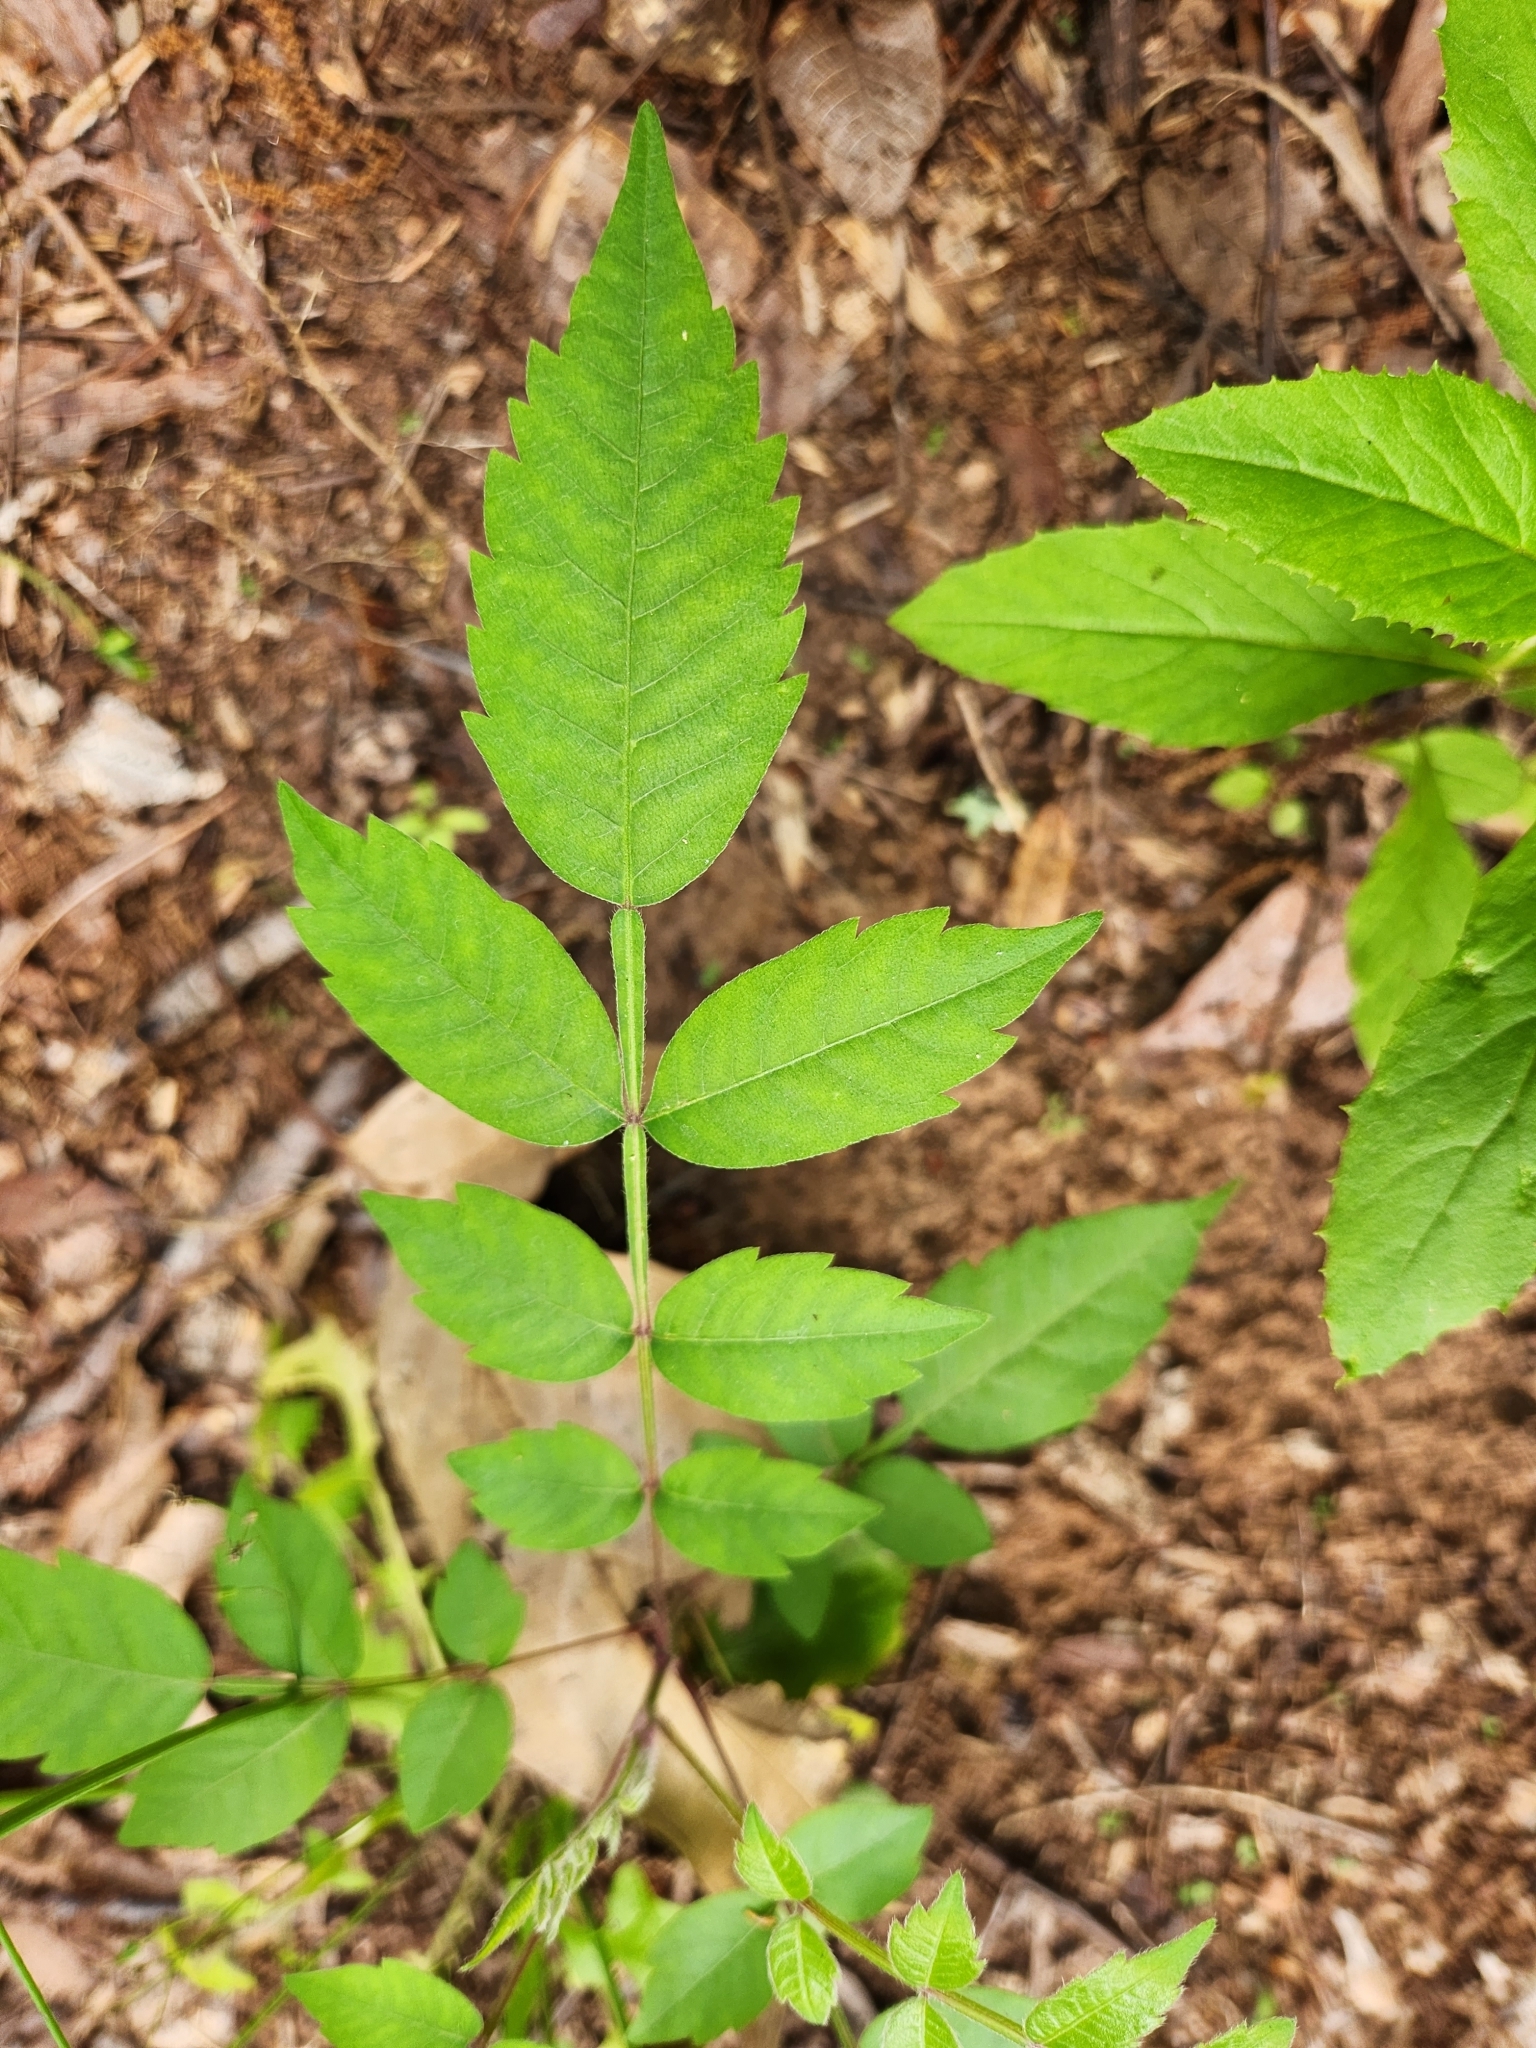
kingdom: Plantae
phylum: Tracheophyta
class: Magnoliopsida
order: Sapindales
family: Anacardiaceae
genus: Rhus
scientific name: Rhus copallina
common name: Shining sumac
